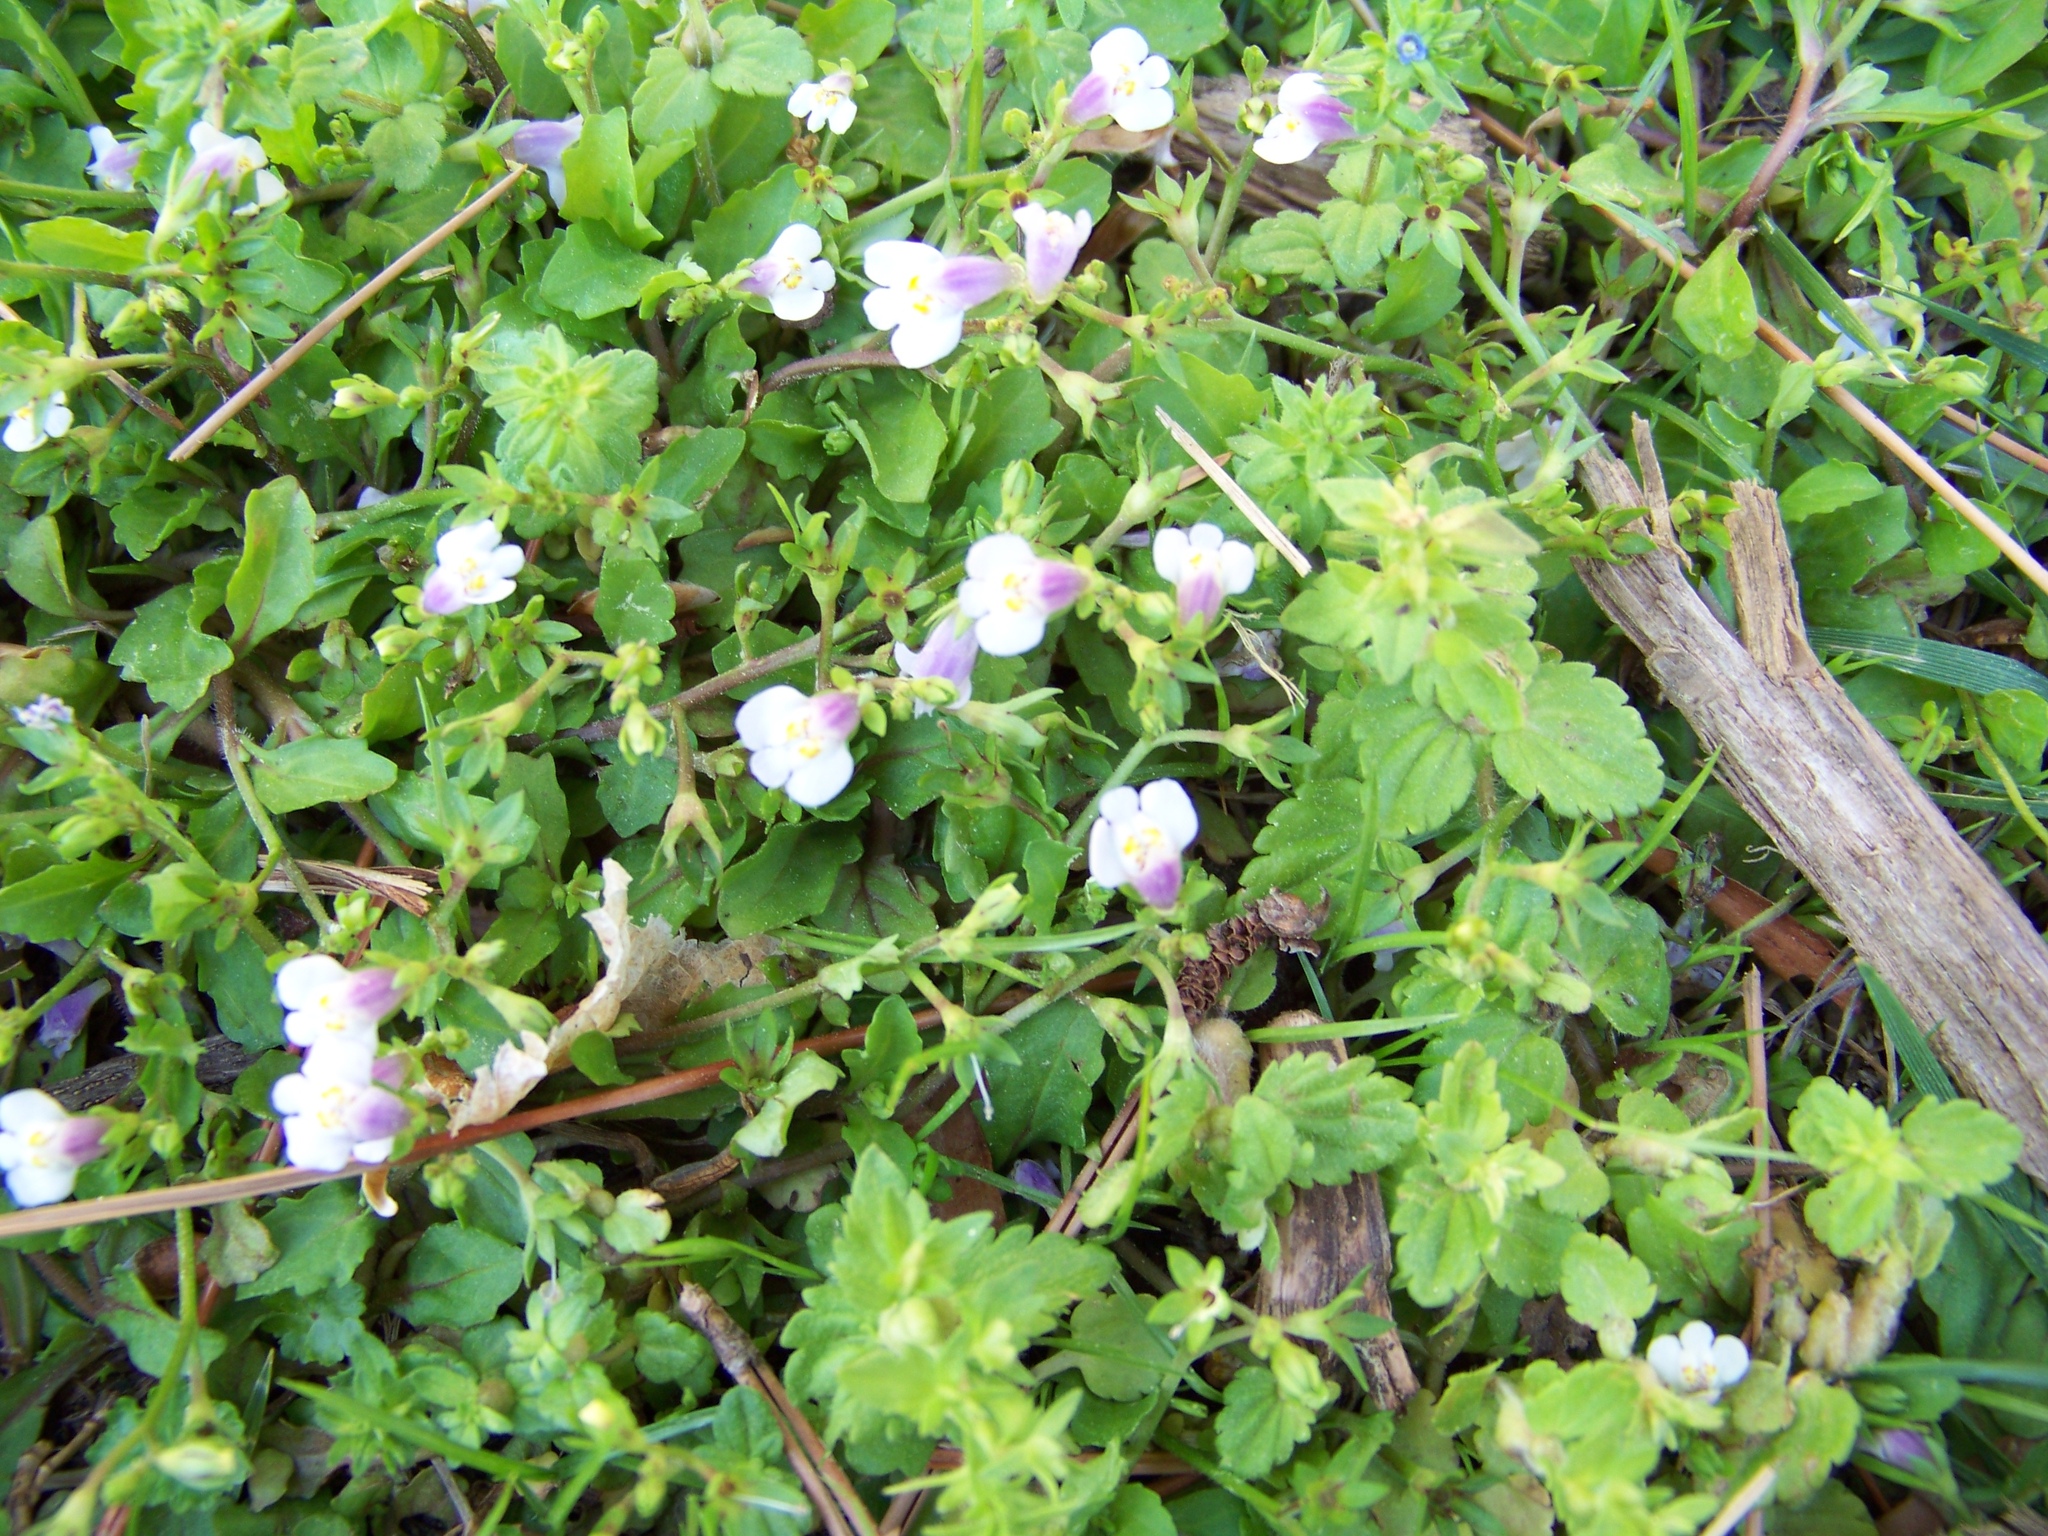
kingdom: Plantae
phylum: Tracheophyta
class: Magnoliopsida
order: Lamiales
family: Mazaceae
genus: Mazus
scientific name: Mazus pumilus
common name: Japanese mazus
